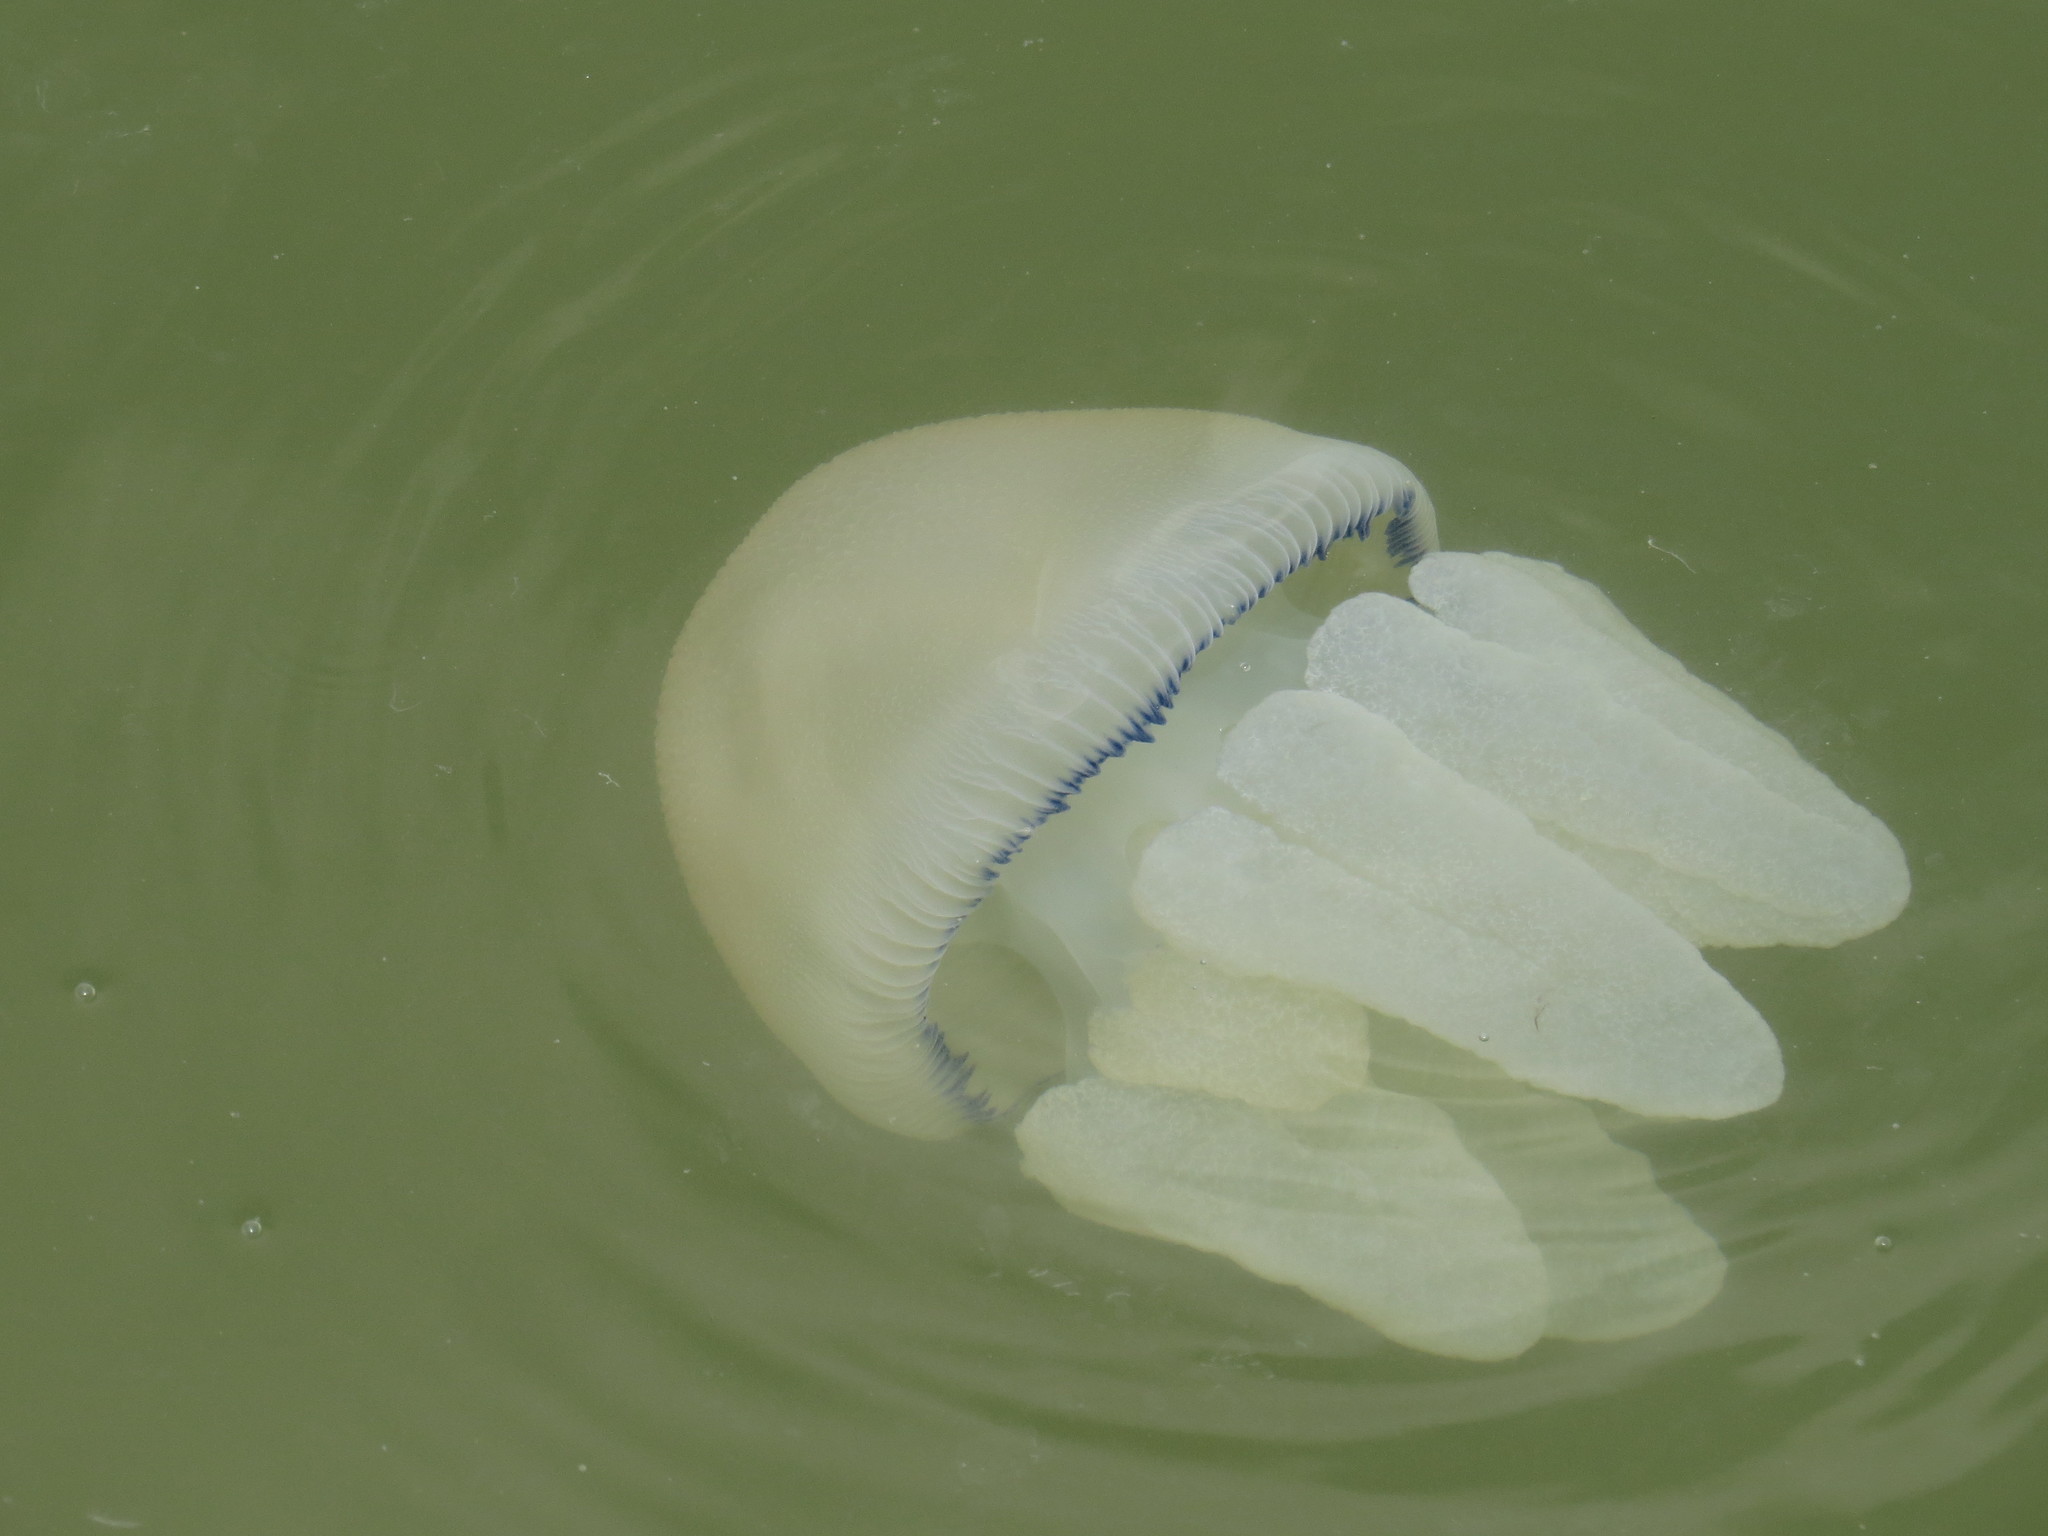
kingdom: Animalia
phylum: Cnidaria
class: Scyphozoa
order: Rhizostomeae
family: Catostylidae
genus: Catostylus
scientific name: Catostylus mosaicus
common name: Blue blubber
